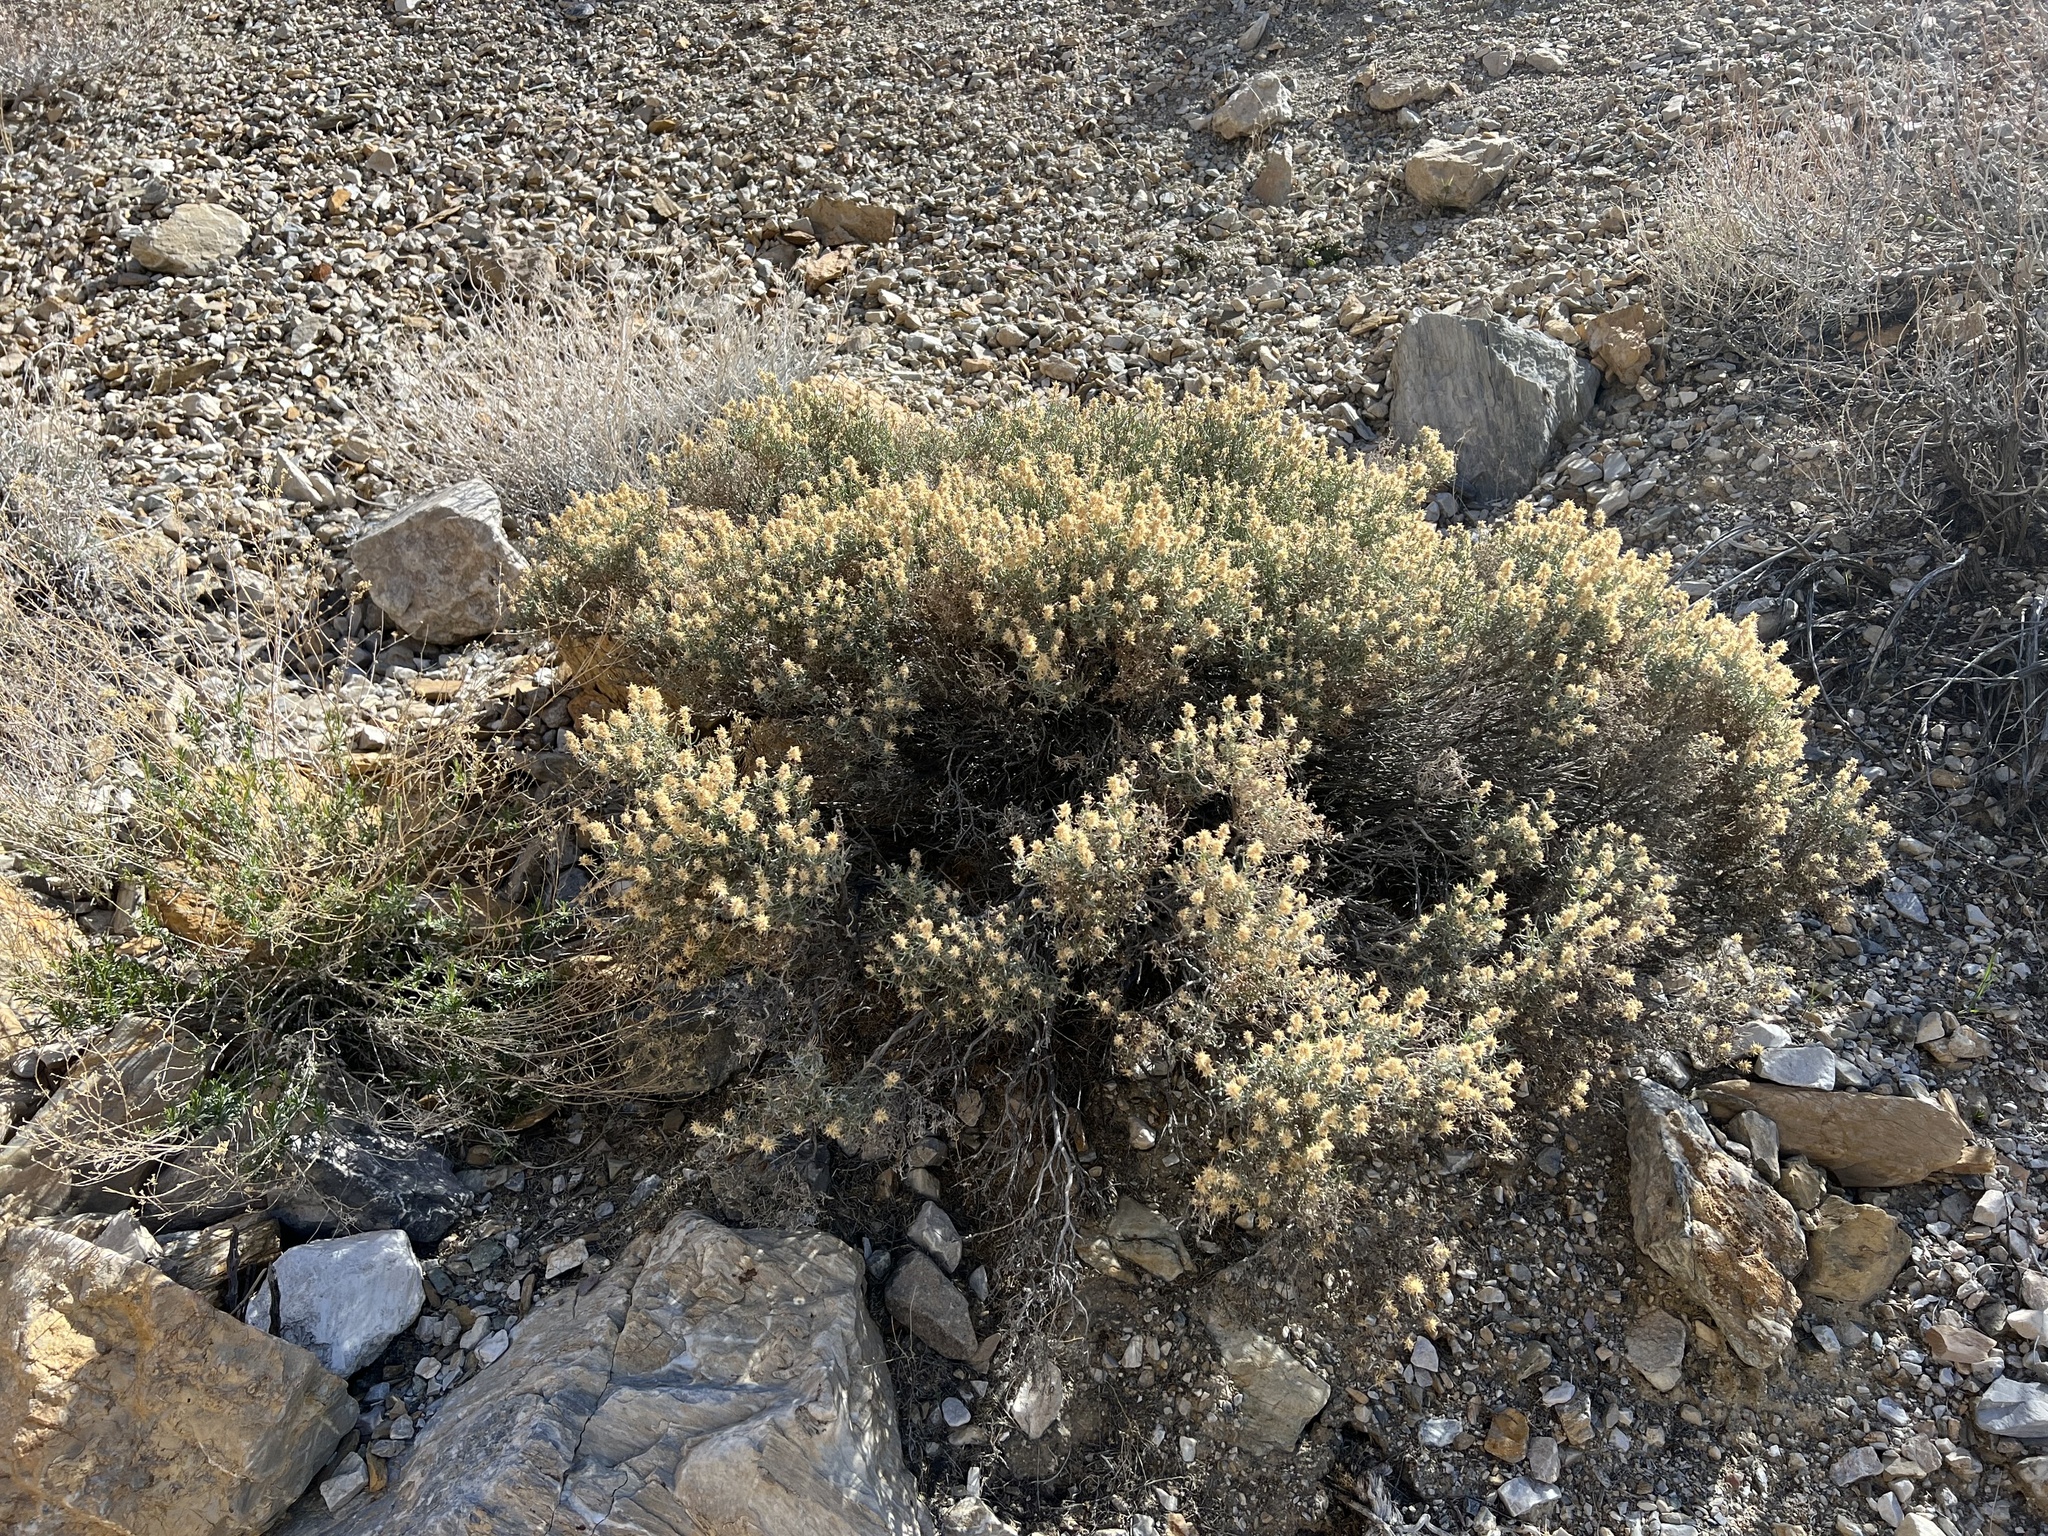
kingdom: Plantae
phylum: Tracheophyta
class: Magnoliopsida
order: Asterales
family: Asteraceae
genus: Ericameria
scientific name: Ericameria teretifolia
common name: Round-leaf rabbitbrush
